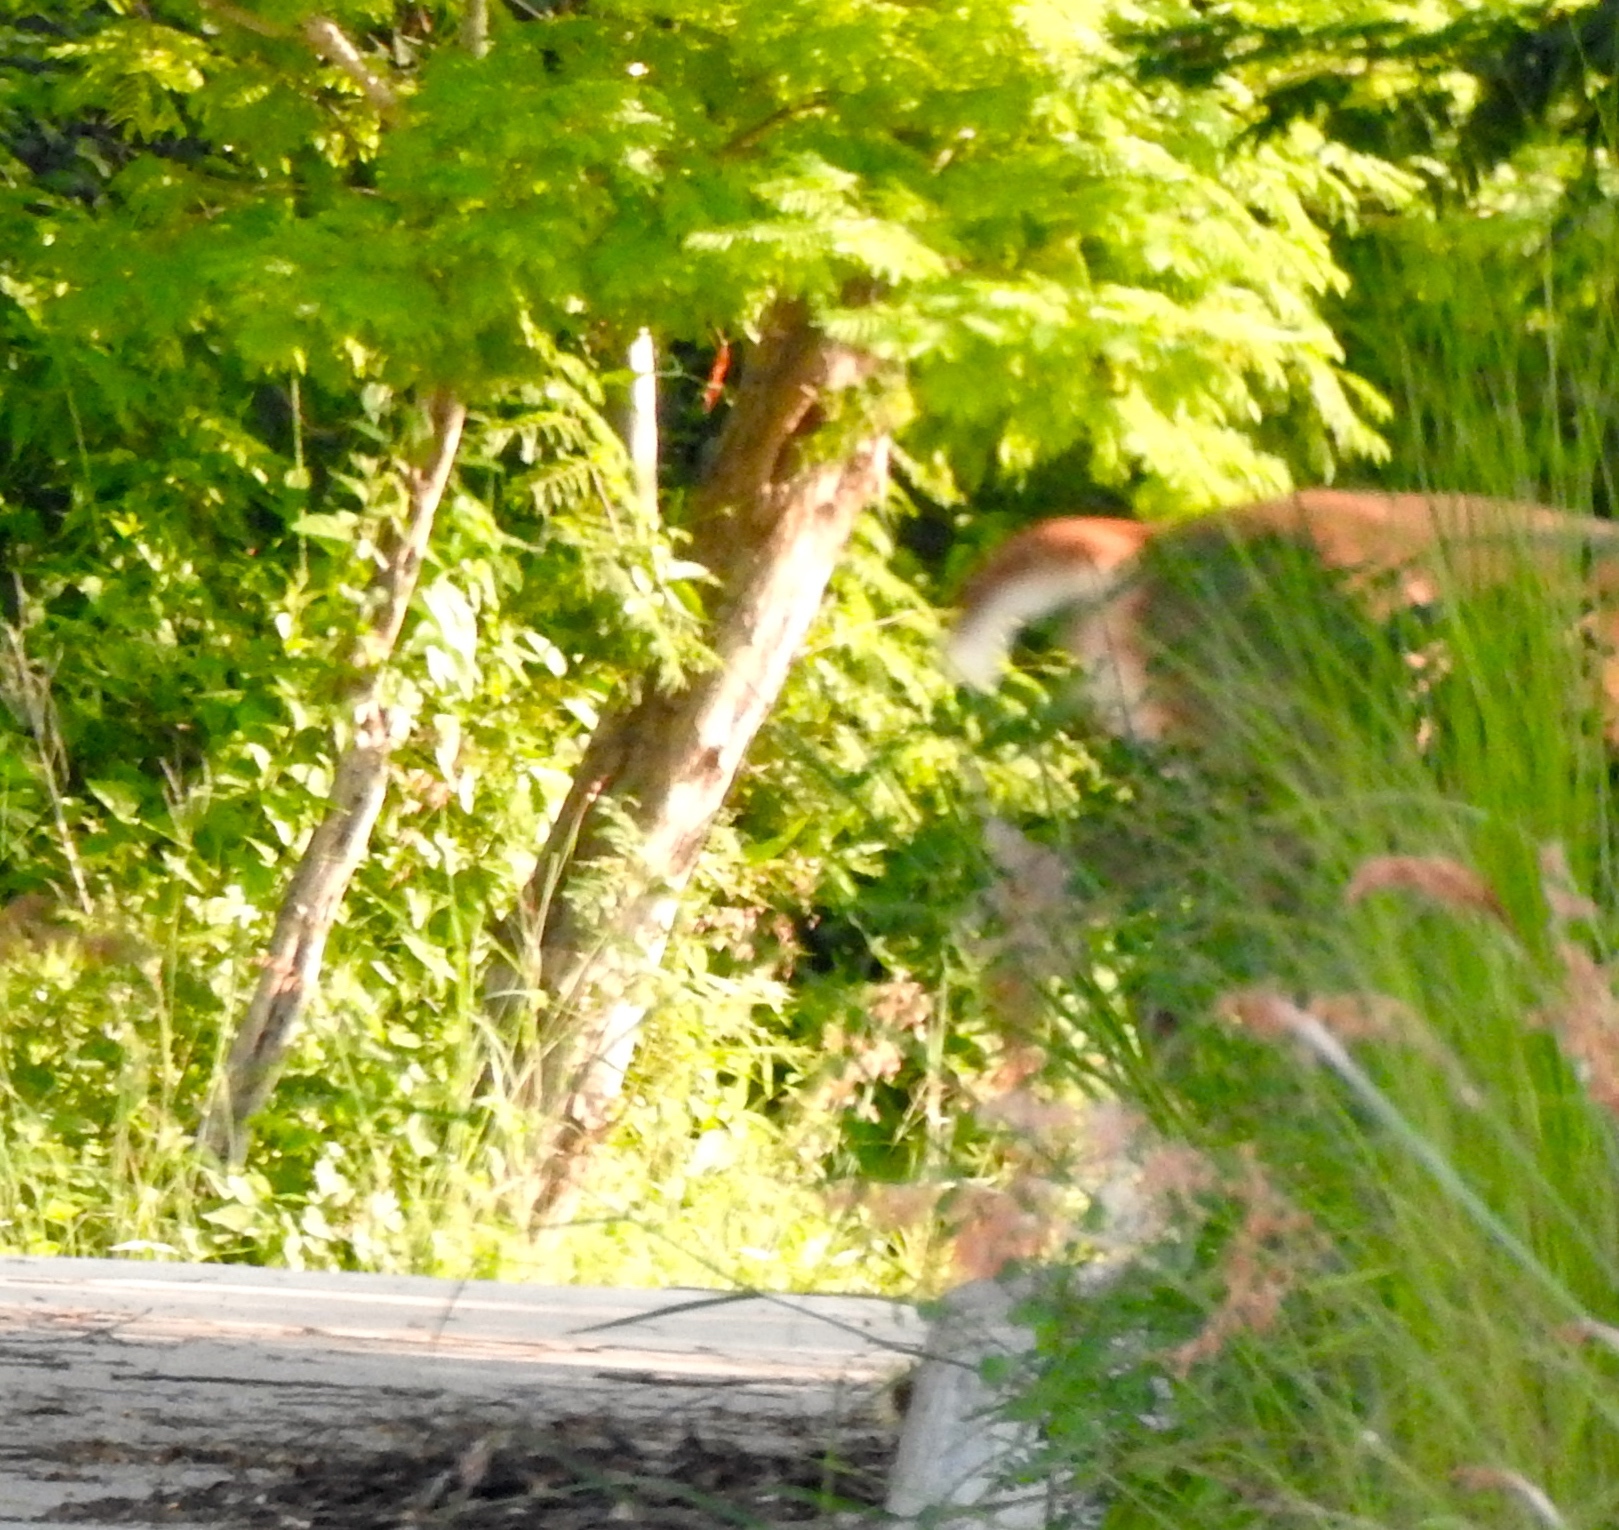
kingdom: Animalia
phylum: Chordata
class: Mammalia
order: Artiodactyla
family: Cervidae
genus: Odocoileus
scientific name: Odocoileus virginianus
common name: White-tailed deer
